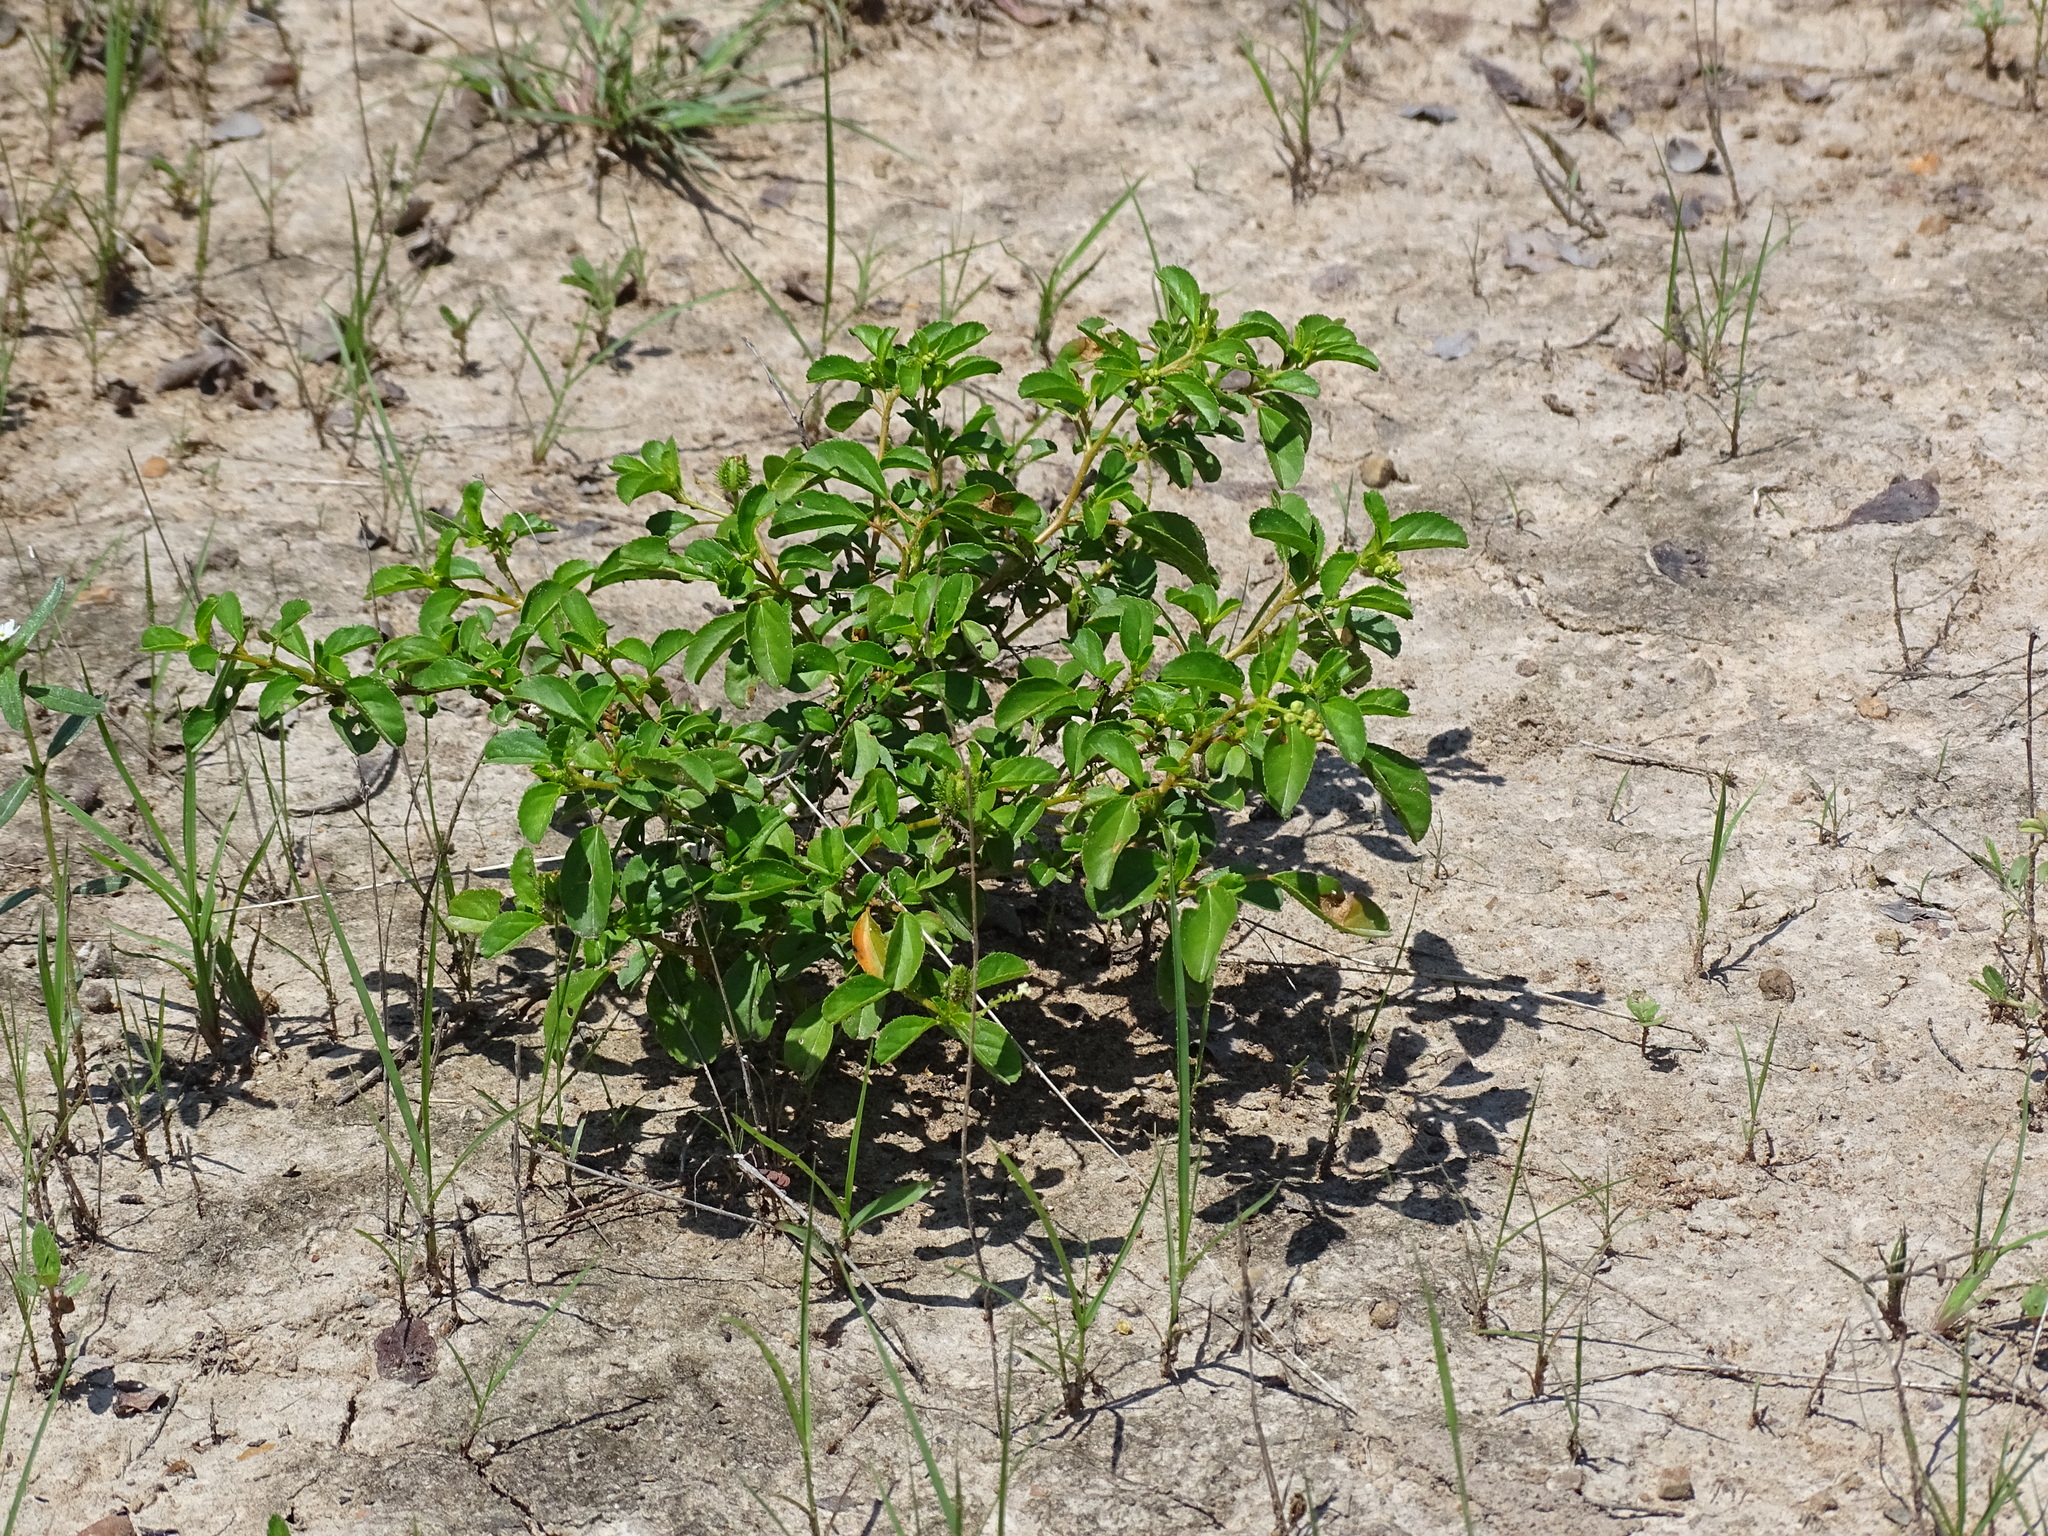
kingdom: Plantae
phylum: Tracheophyta
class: Magnoliopsida
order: Malpighiales
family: Euphorbiaceae
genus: Croton
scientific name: Croton ovalifolius
